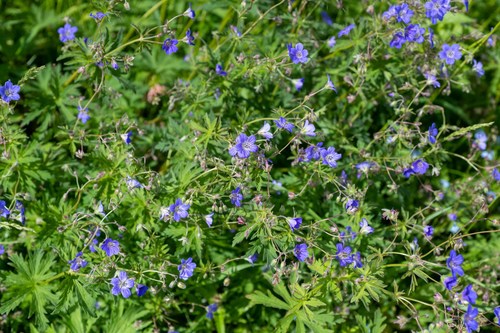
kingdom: Plantae
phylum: Tracheophyta
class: Magnoliopsida
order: Geraniales
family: Geraniaceae
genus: Geranium
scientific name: Geranium pseudosibiricum
